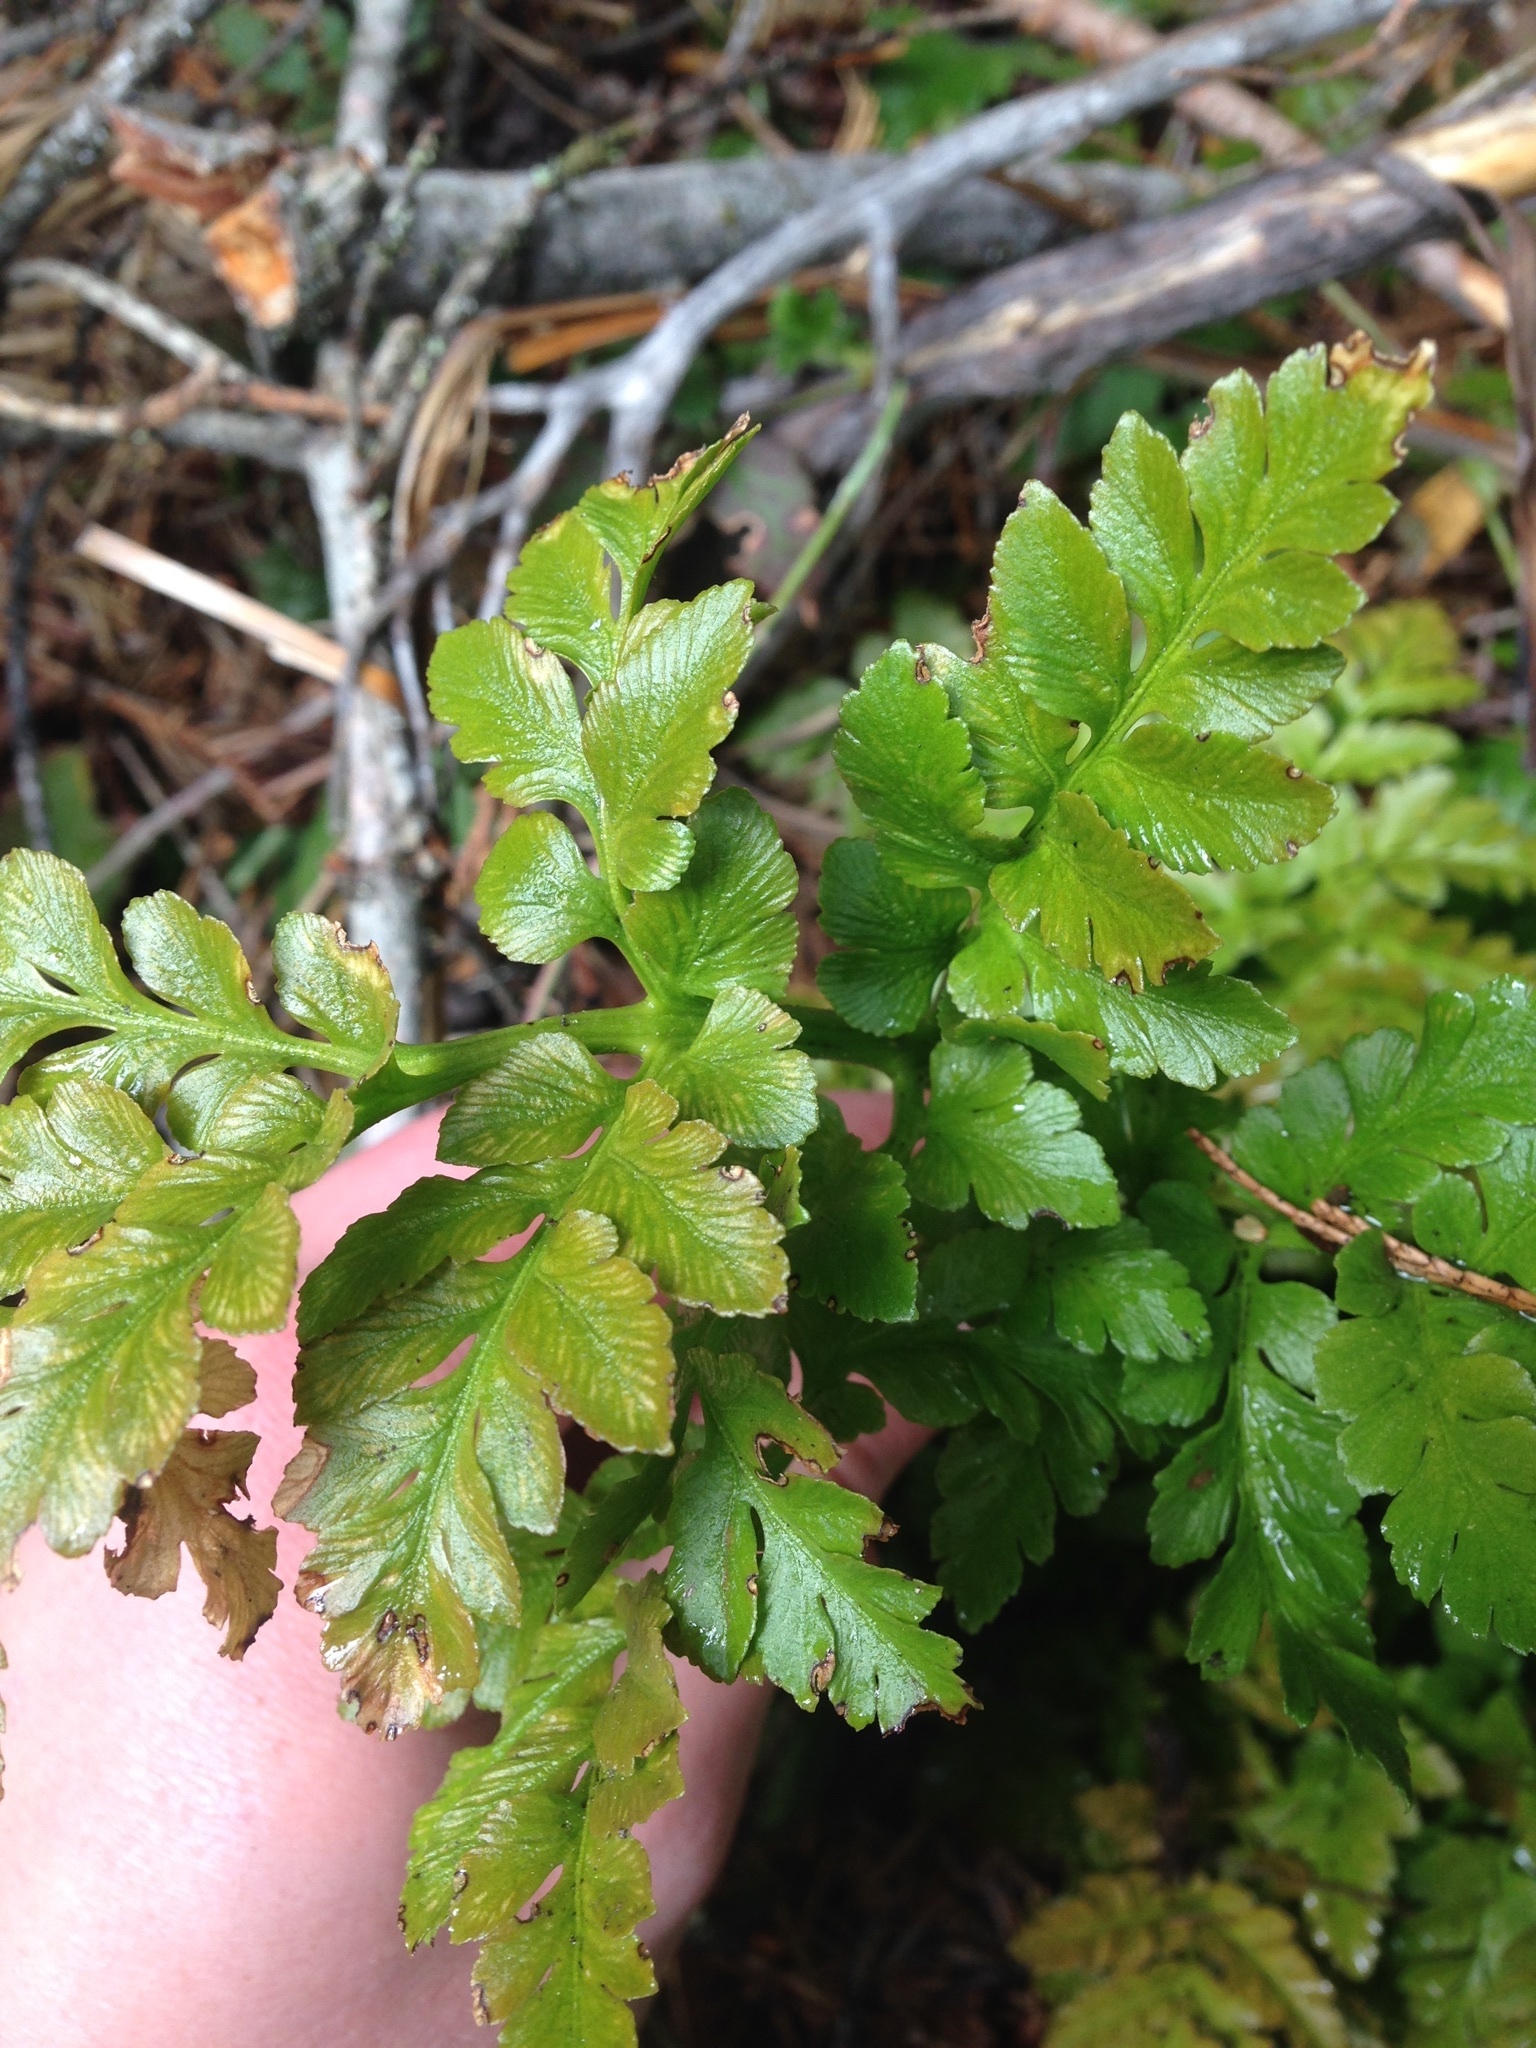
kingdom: Plantae
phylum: Tracheophyta
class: Polypodiopsida
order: Ophioglossales
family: Ophioglossaceae
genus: Sceptridium
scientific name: Sceptridium multifidum
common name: Leathery grape fern
